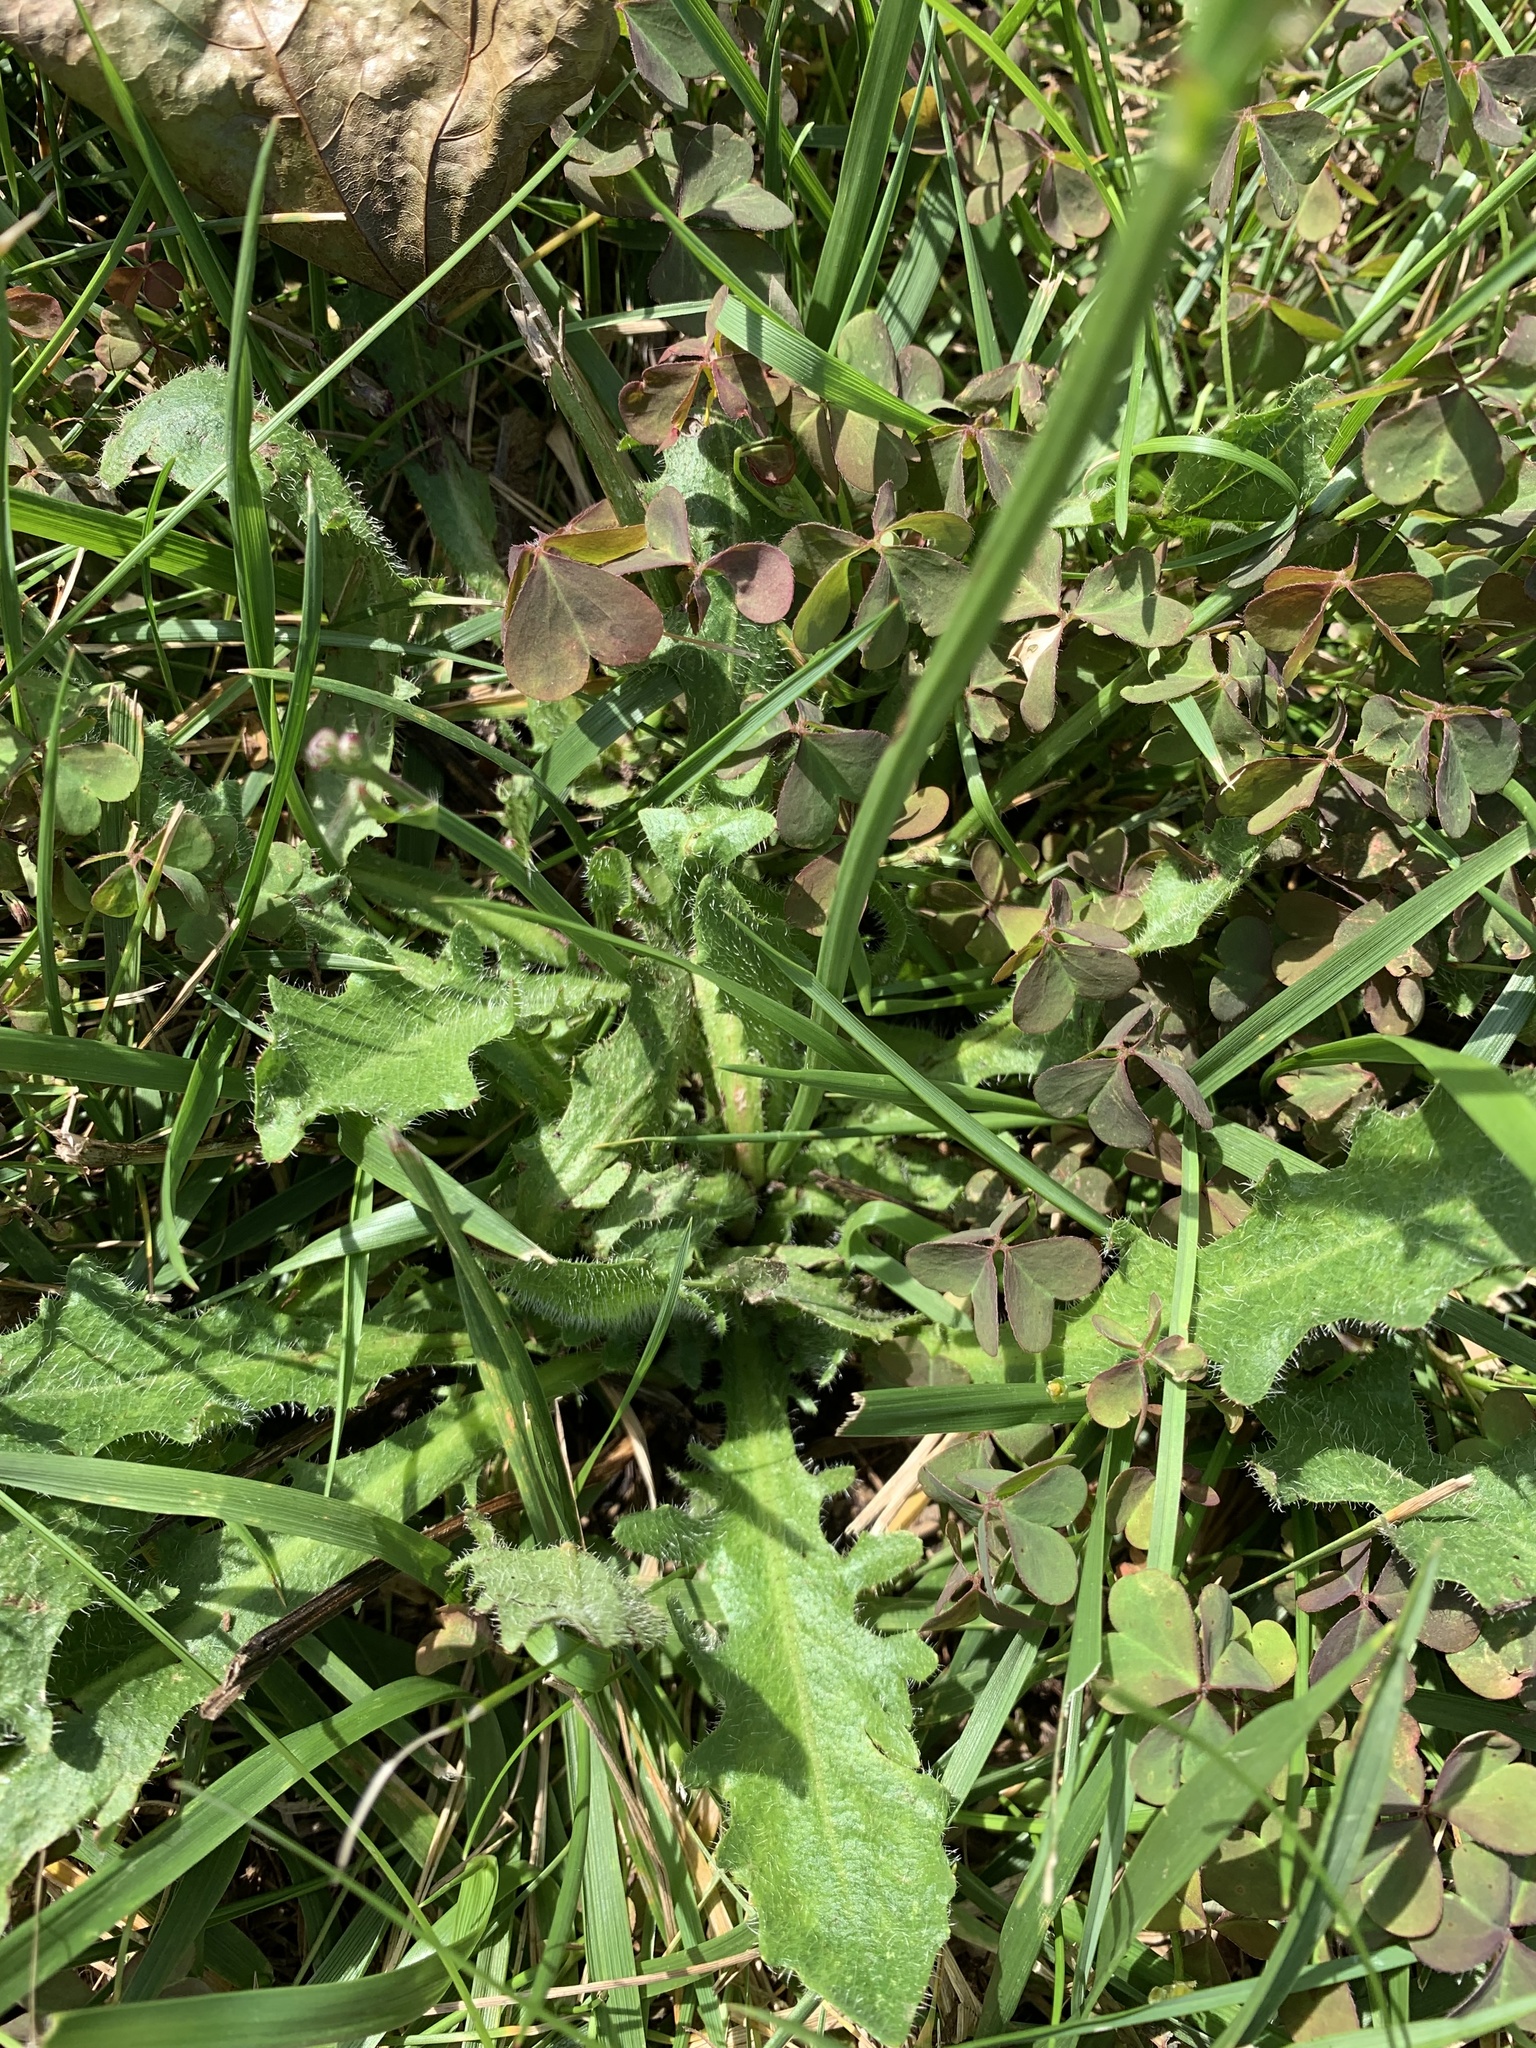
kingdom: Plantae
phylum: Tracheophyta
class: Magnoliopsida
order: Asterales
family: Asteraceae
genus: Hypochaeris
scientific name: Hypochaeris radicata
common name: Flatweed
